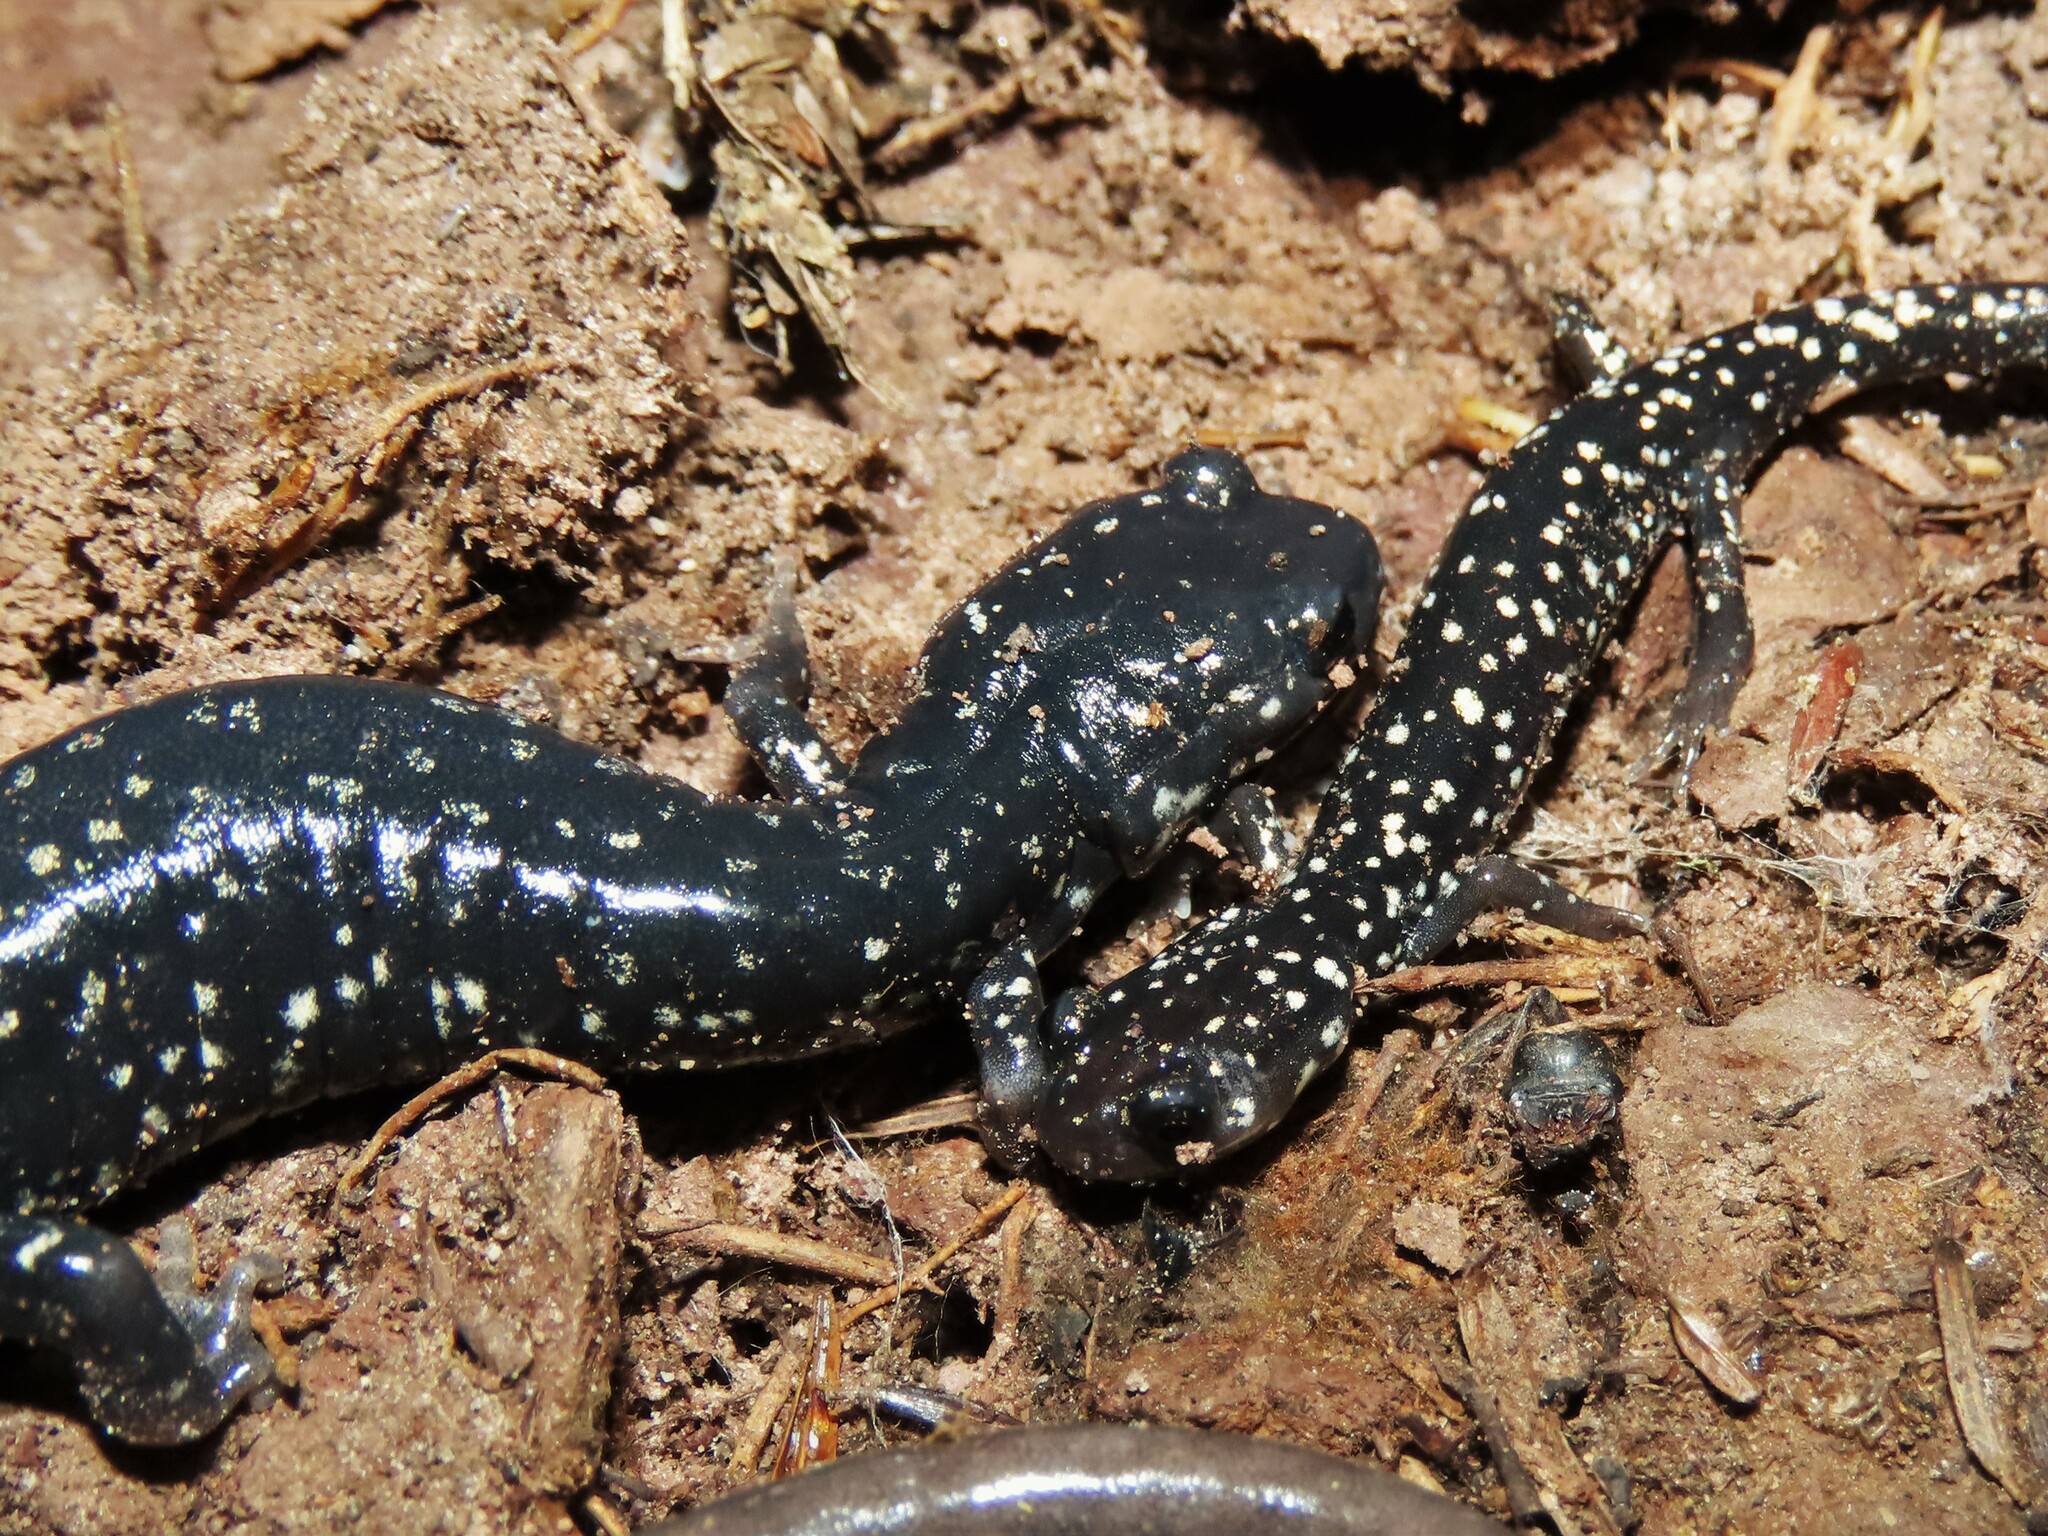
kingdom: Animalia
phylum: Chordata
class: Amphibia
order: Caudata
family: Plethodontidae
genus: Plethodon
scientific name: Plethodon glutinosus
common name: Northern slimy salamander
